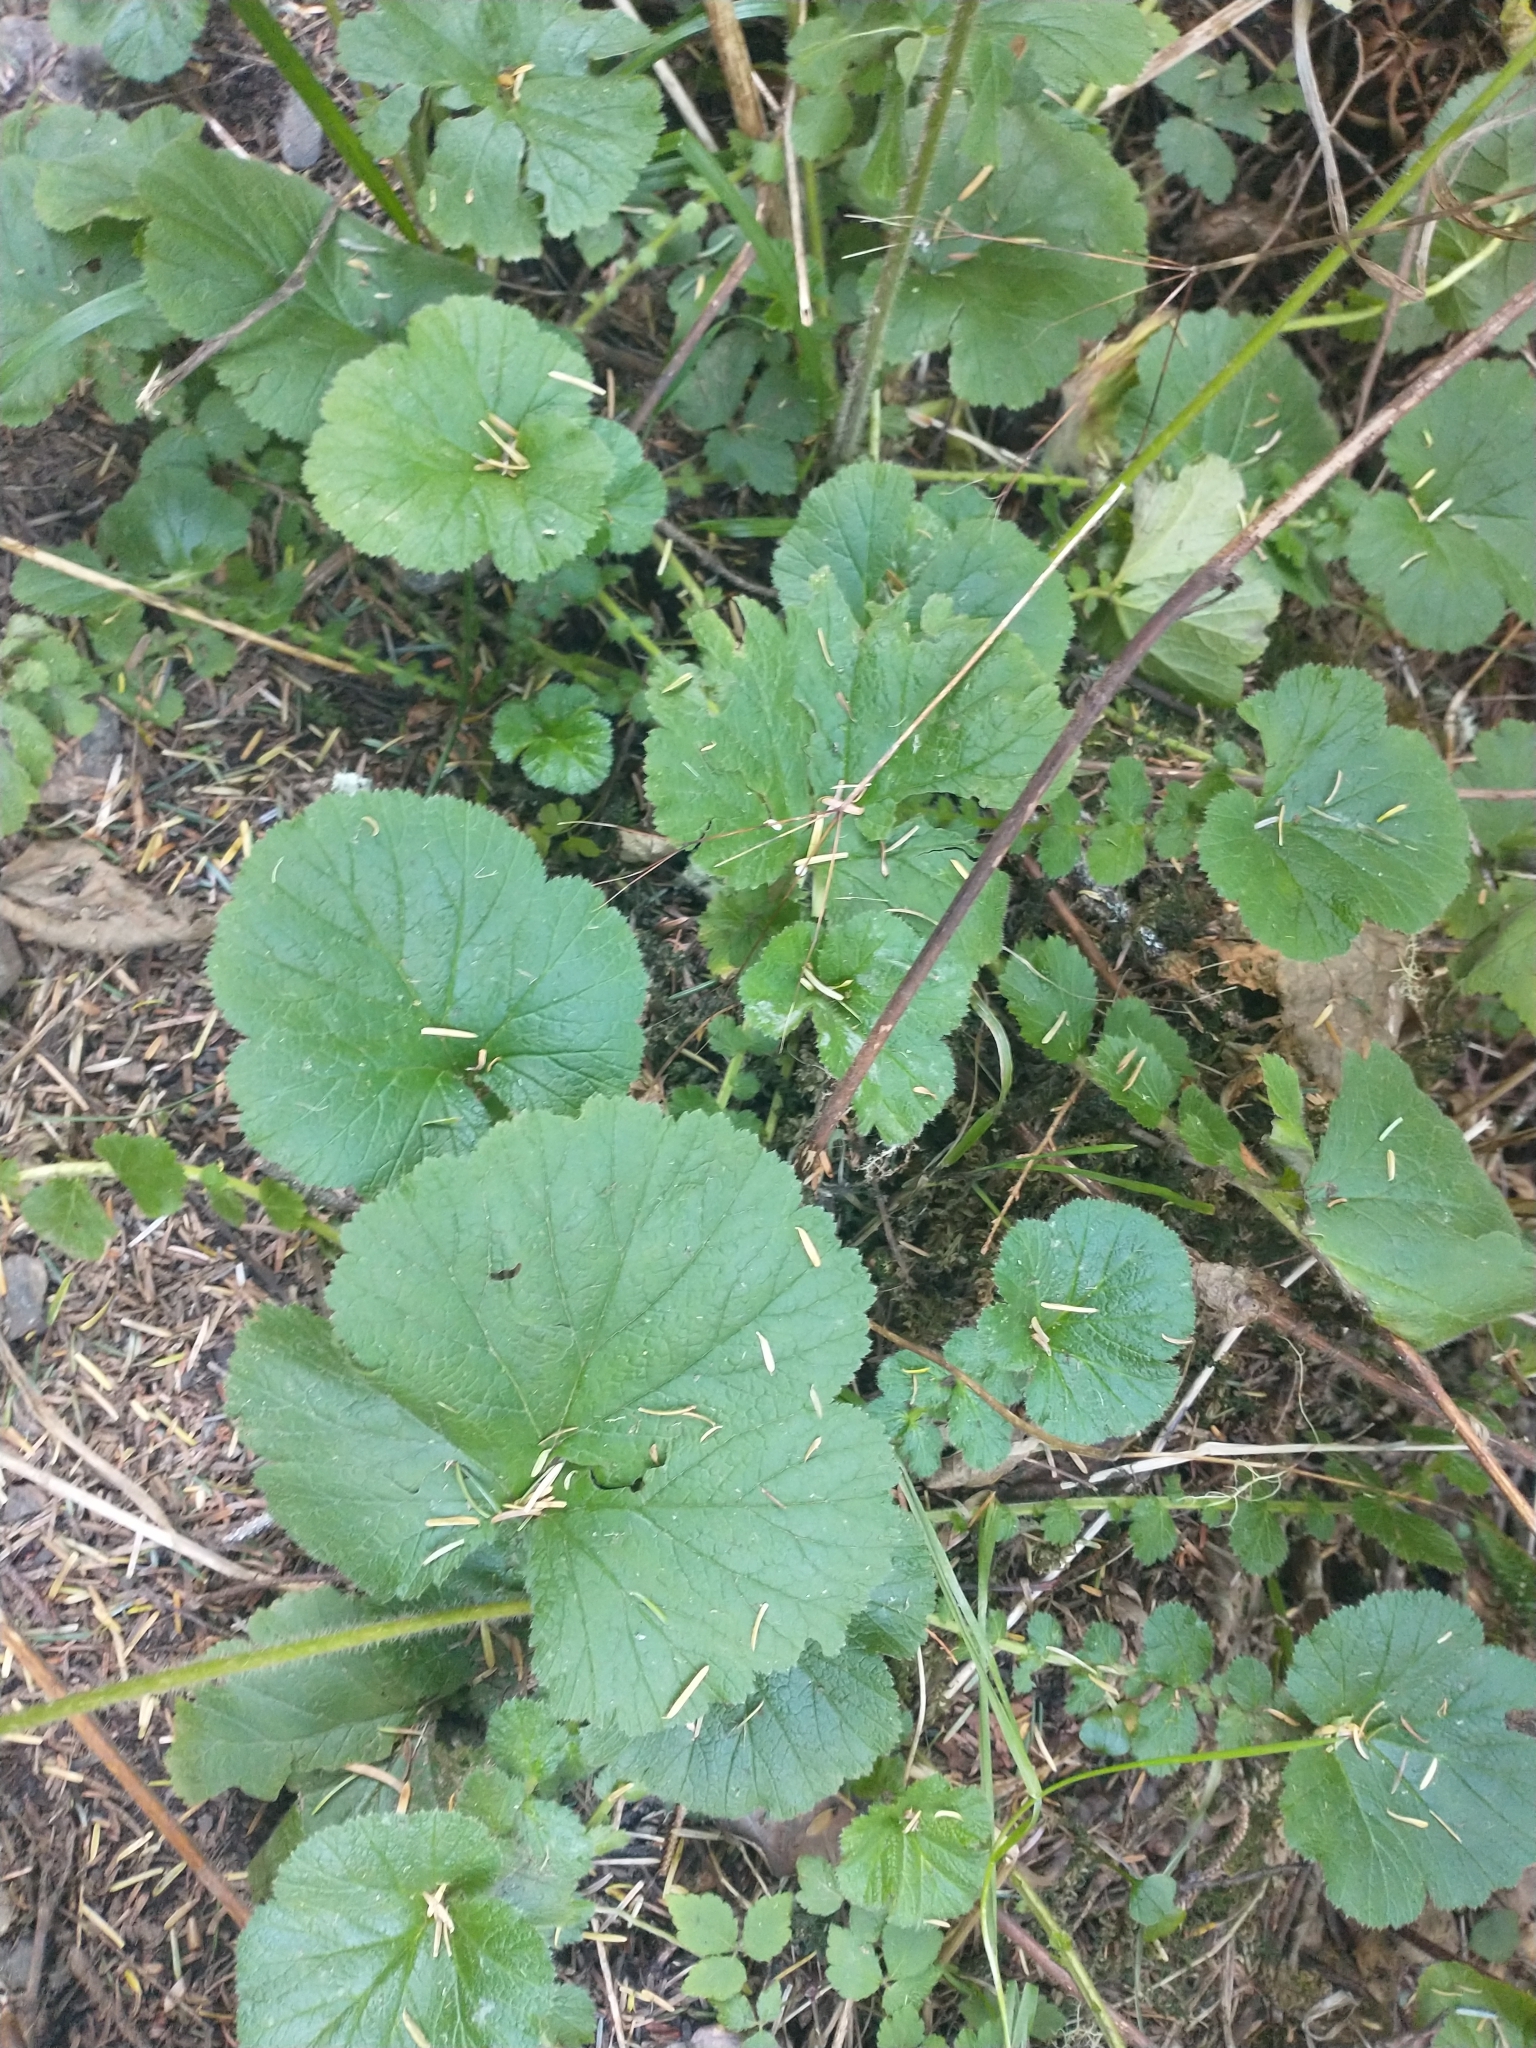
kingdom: Plantae
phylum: Tracheophyta
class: Magnoliopsida
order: Rosales
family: Rosaceae
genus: Geum
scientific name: Geum macrophyllum
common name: Large-leaved avens
